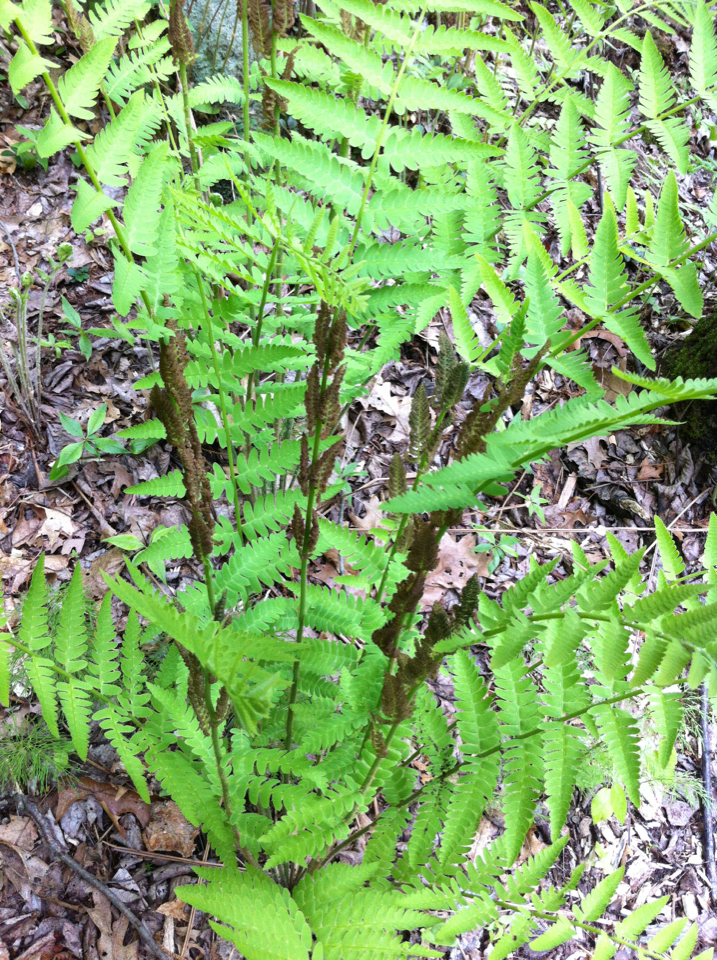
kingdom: Plantae
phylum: Tracheophyta
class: Polypodiopsida
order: Osmundales
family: Osmundaceae
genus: Claytosmunda
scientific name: Claytosmunda claytoniana
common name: Clayton's fern
